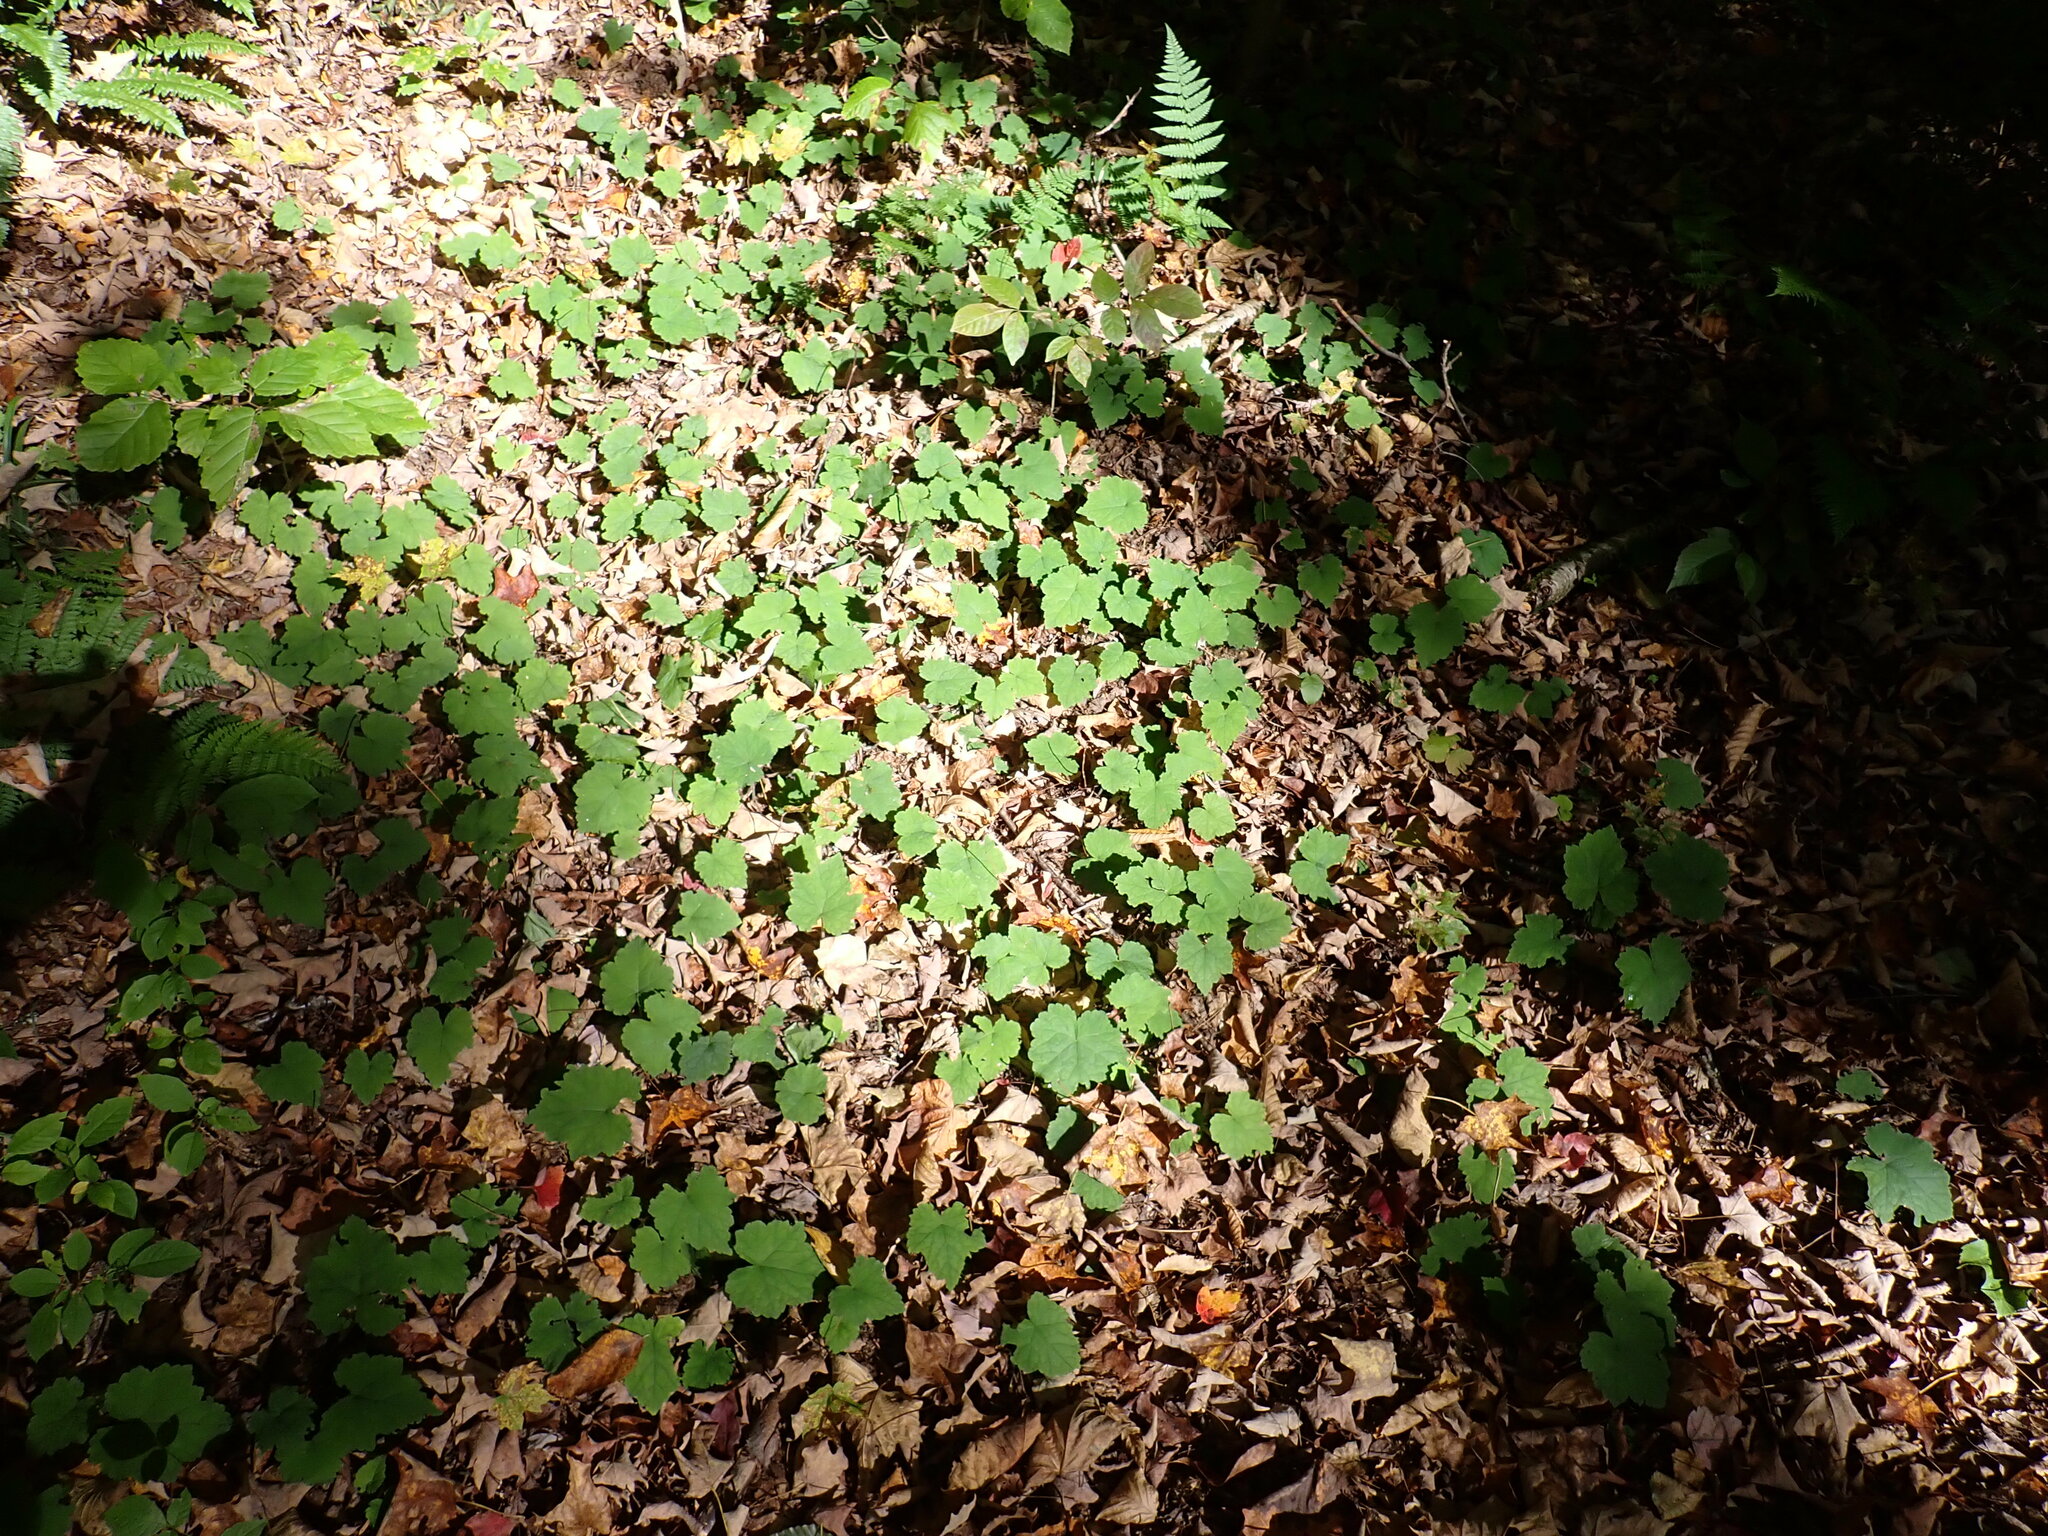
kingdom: Plantae
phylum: Tracheophyta
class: Magnoliopsida
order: Saxifragales
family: Saxifragaceae
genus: Tiarella
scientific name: Tiarella stolonifera
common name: Stoloniferous foamflower
